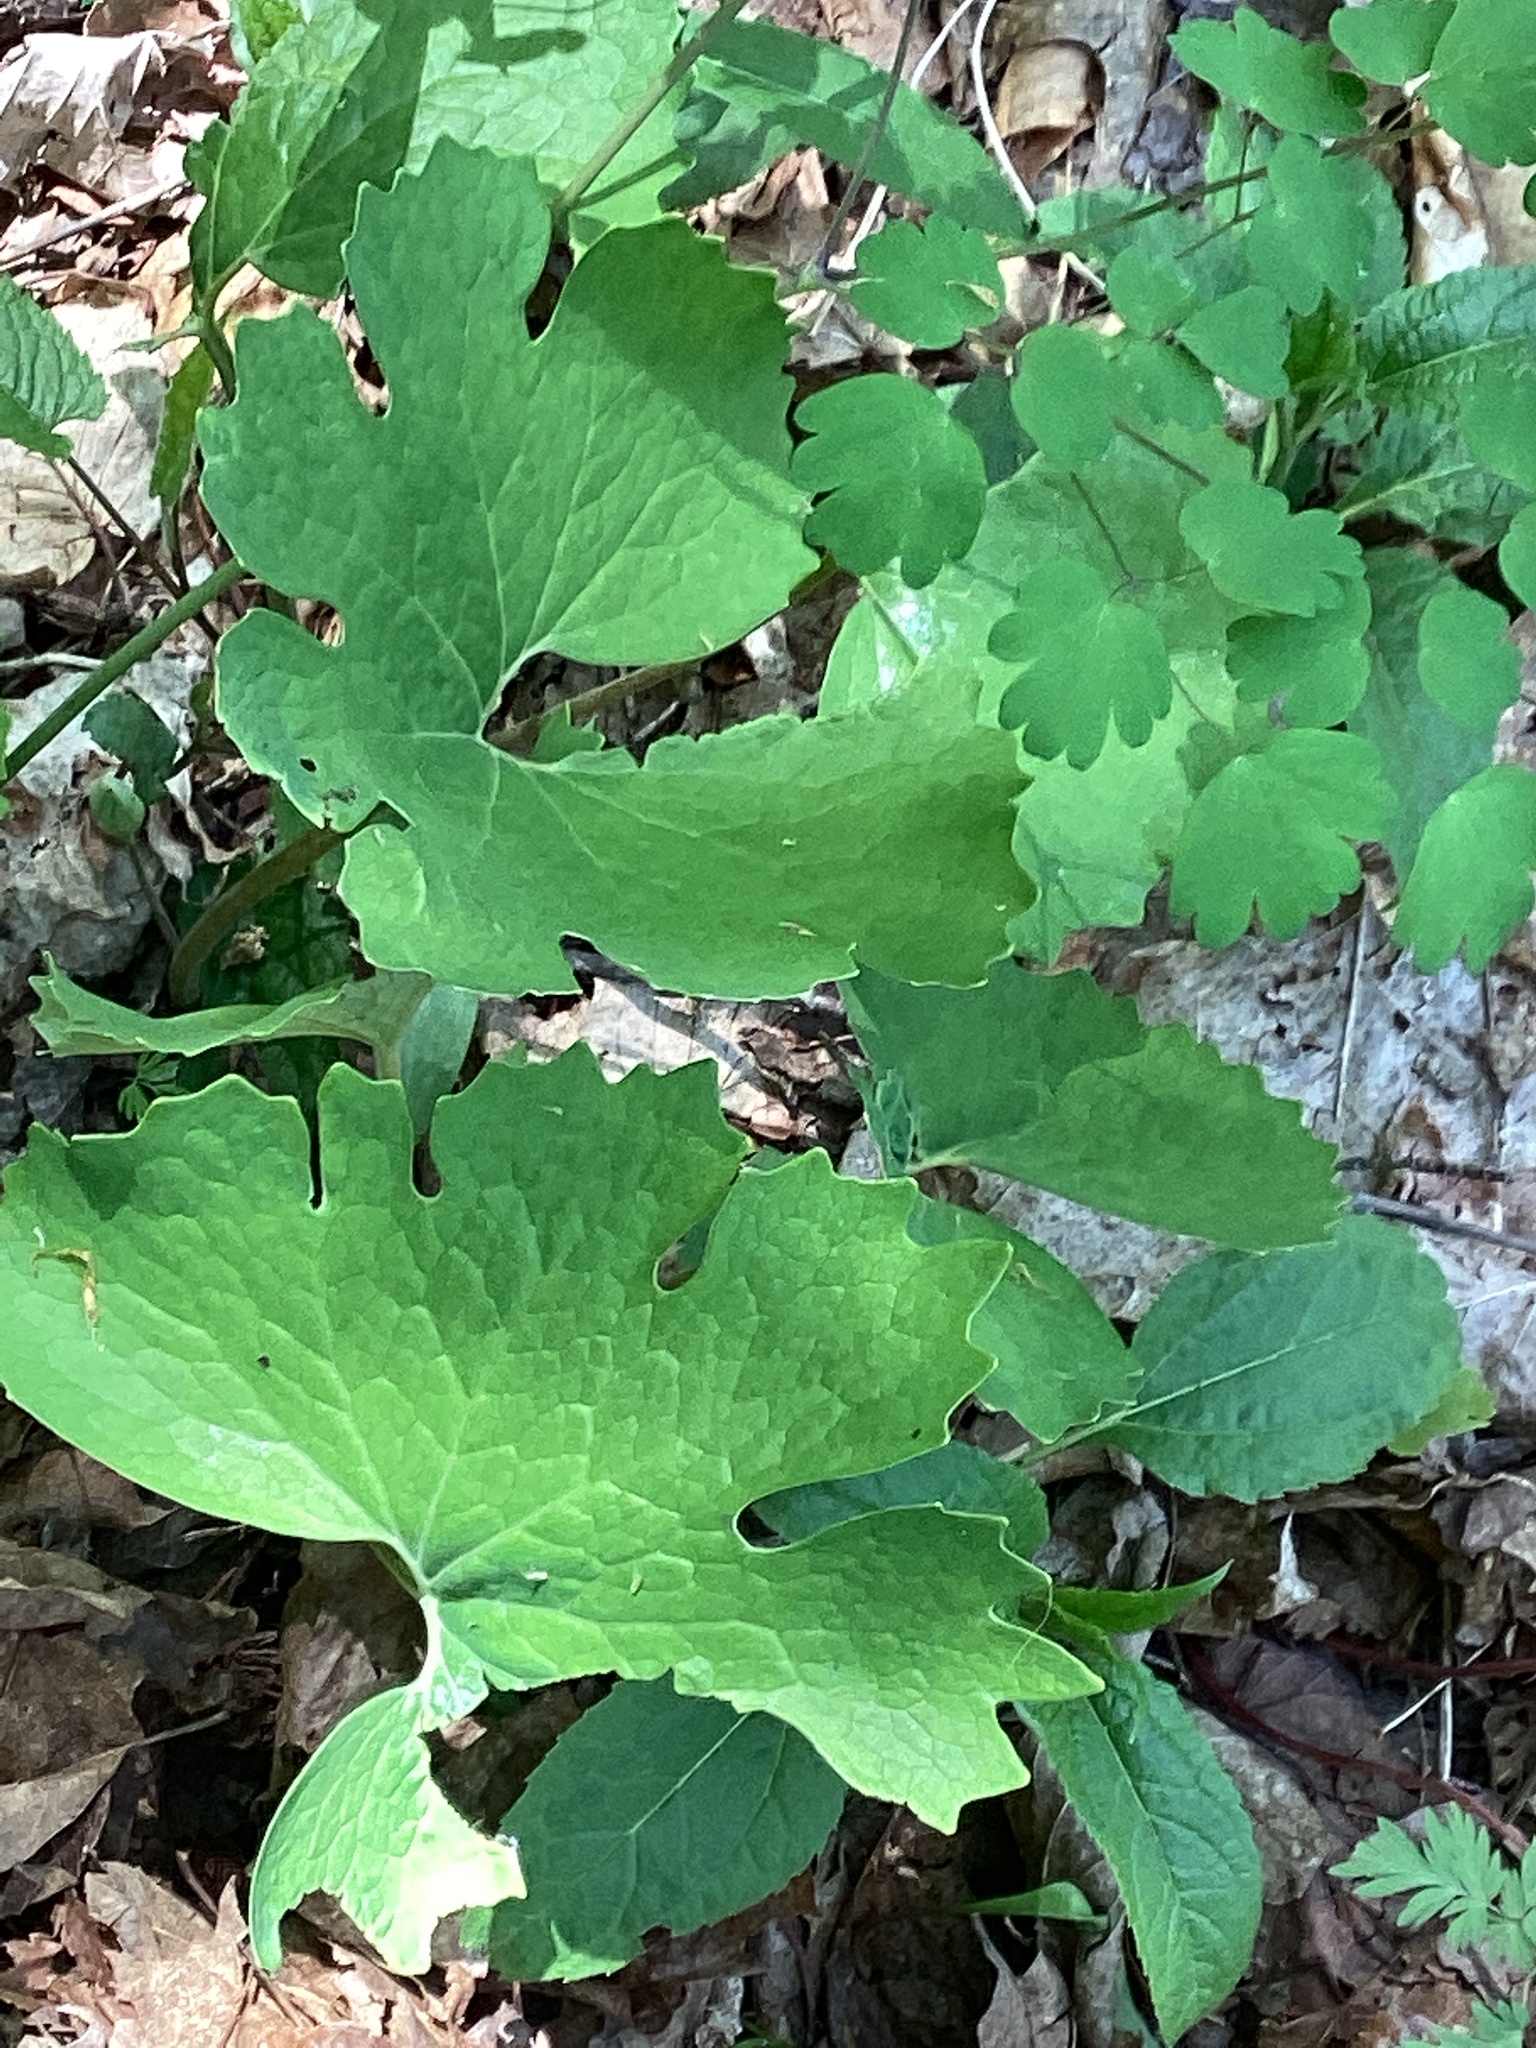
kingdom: Plantae
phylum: Tracheophyta
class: Magnoliopsida
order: Ranunculales
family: Papaveraceae
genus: Sanguinaria
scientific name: Sanguinaria canadensis
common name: Bloodroot
